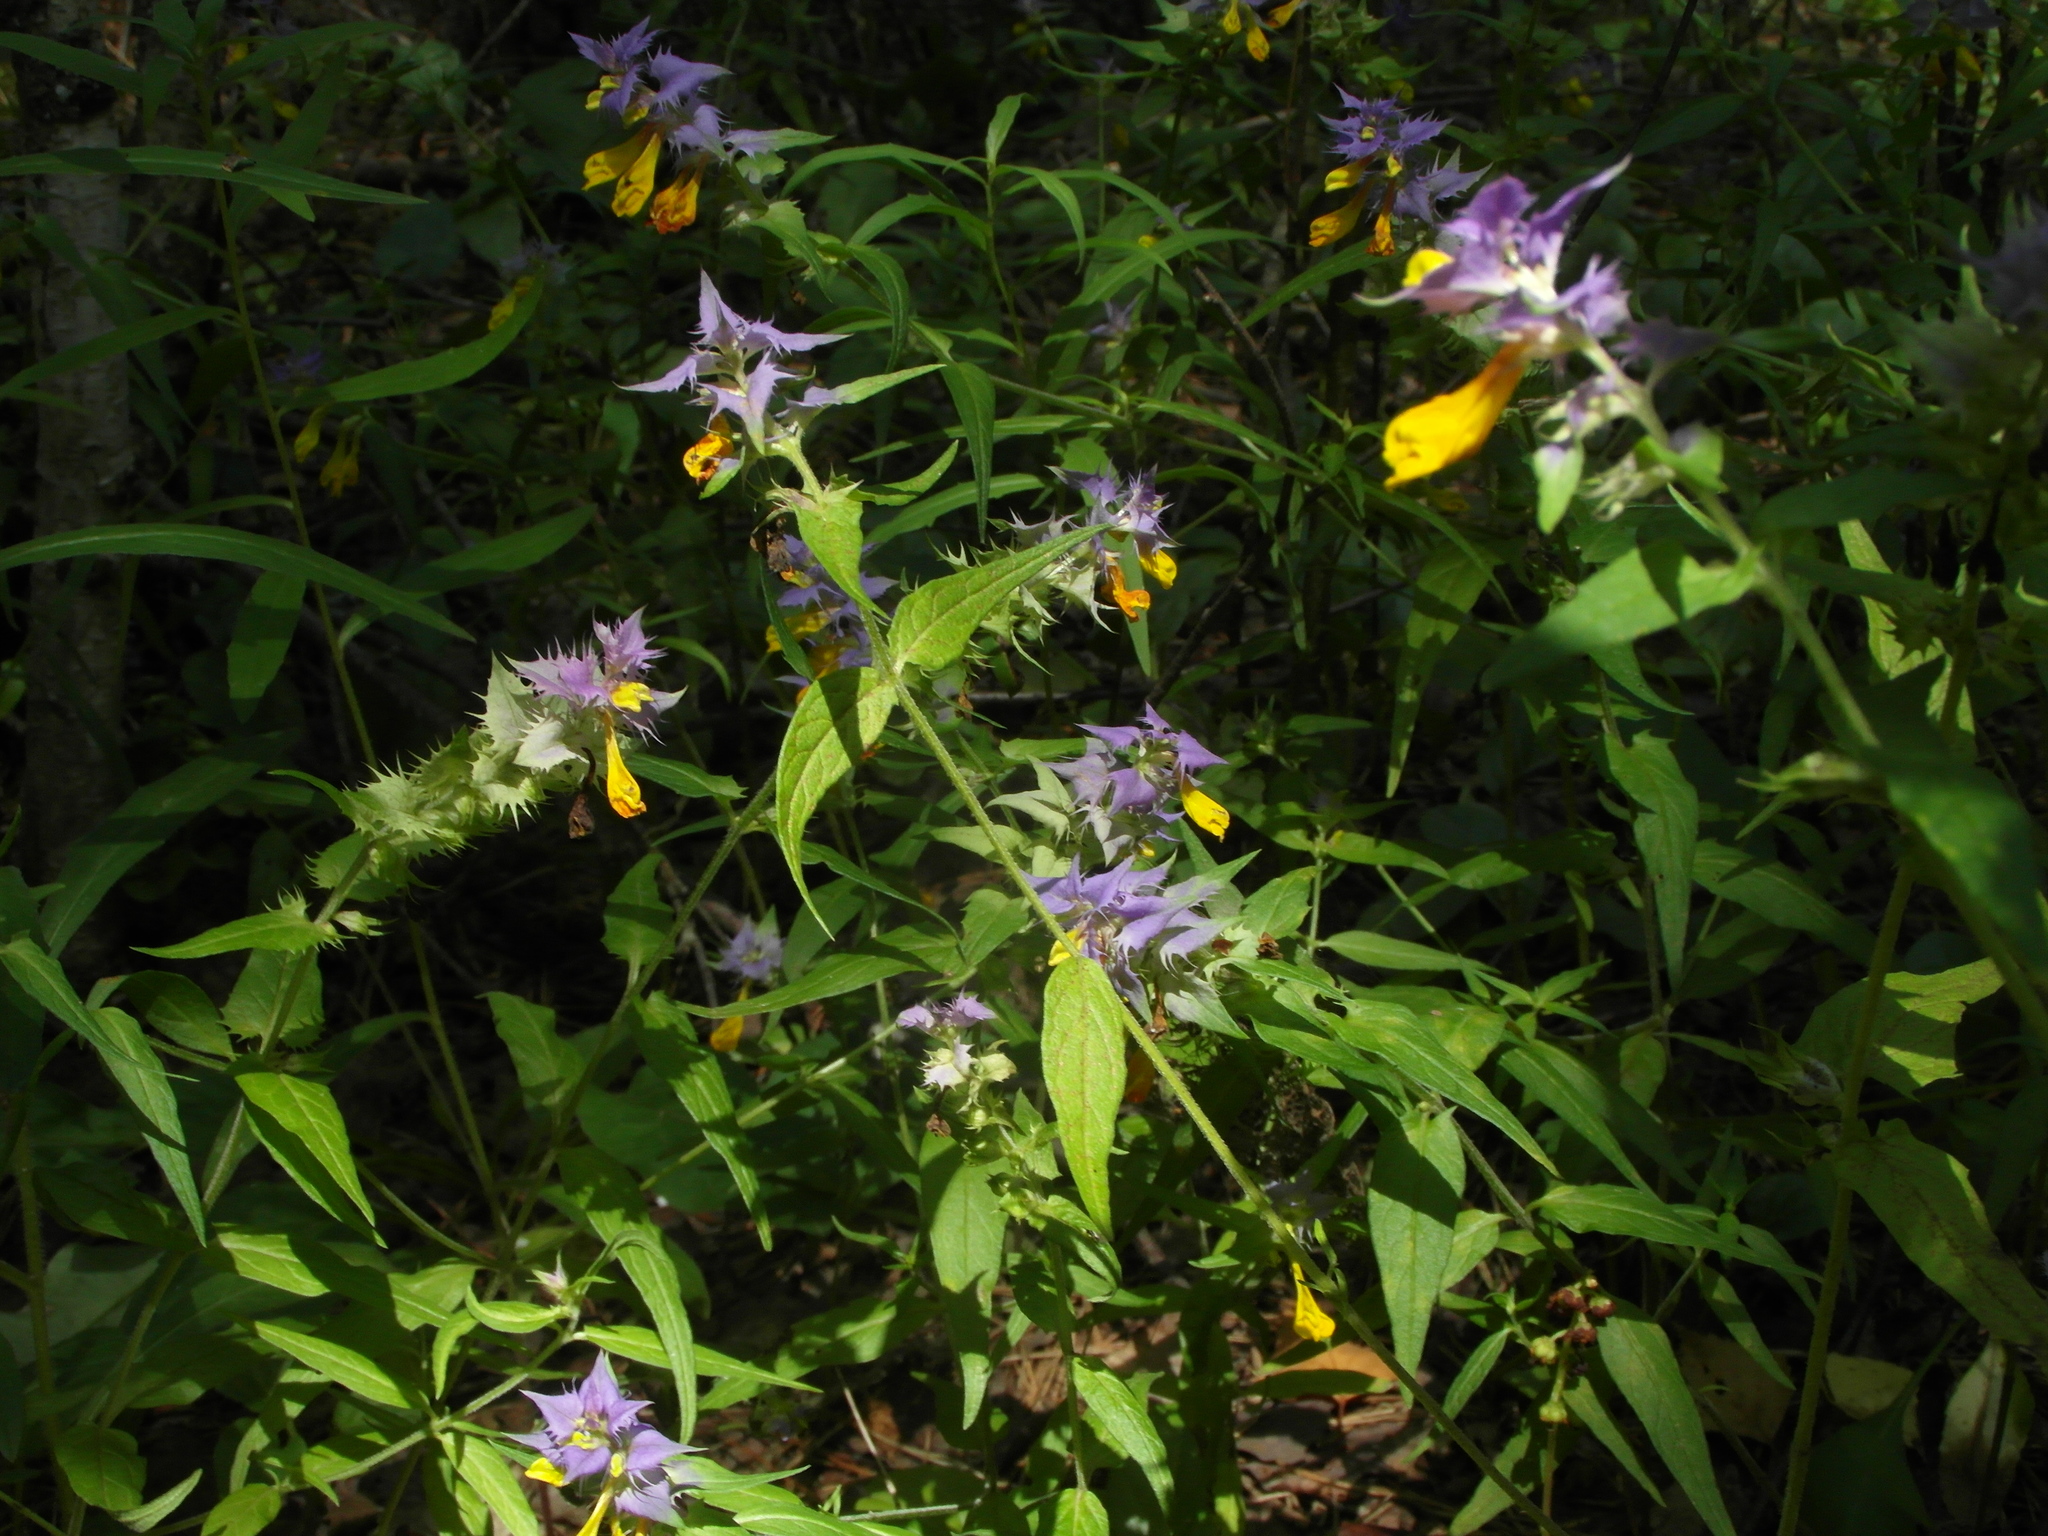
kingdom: Plantae
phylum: Tracheophyta
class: Magnoliopsida
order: Lamiales
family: Orobanchaceae
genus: Melampyrum
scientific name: Melampyrum nemorosum
